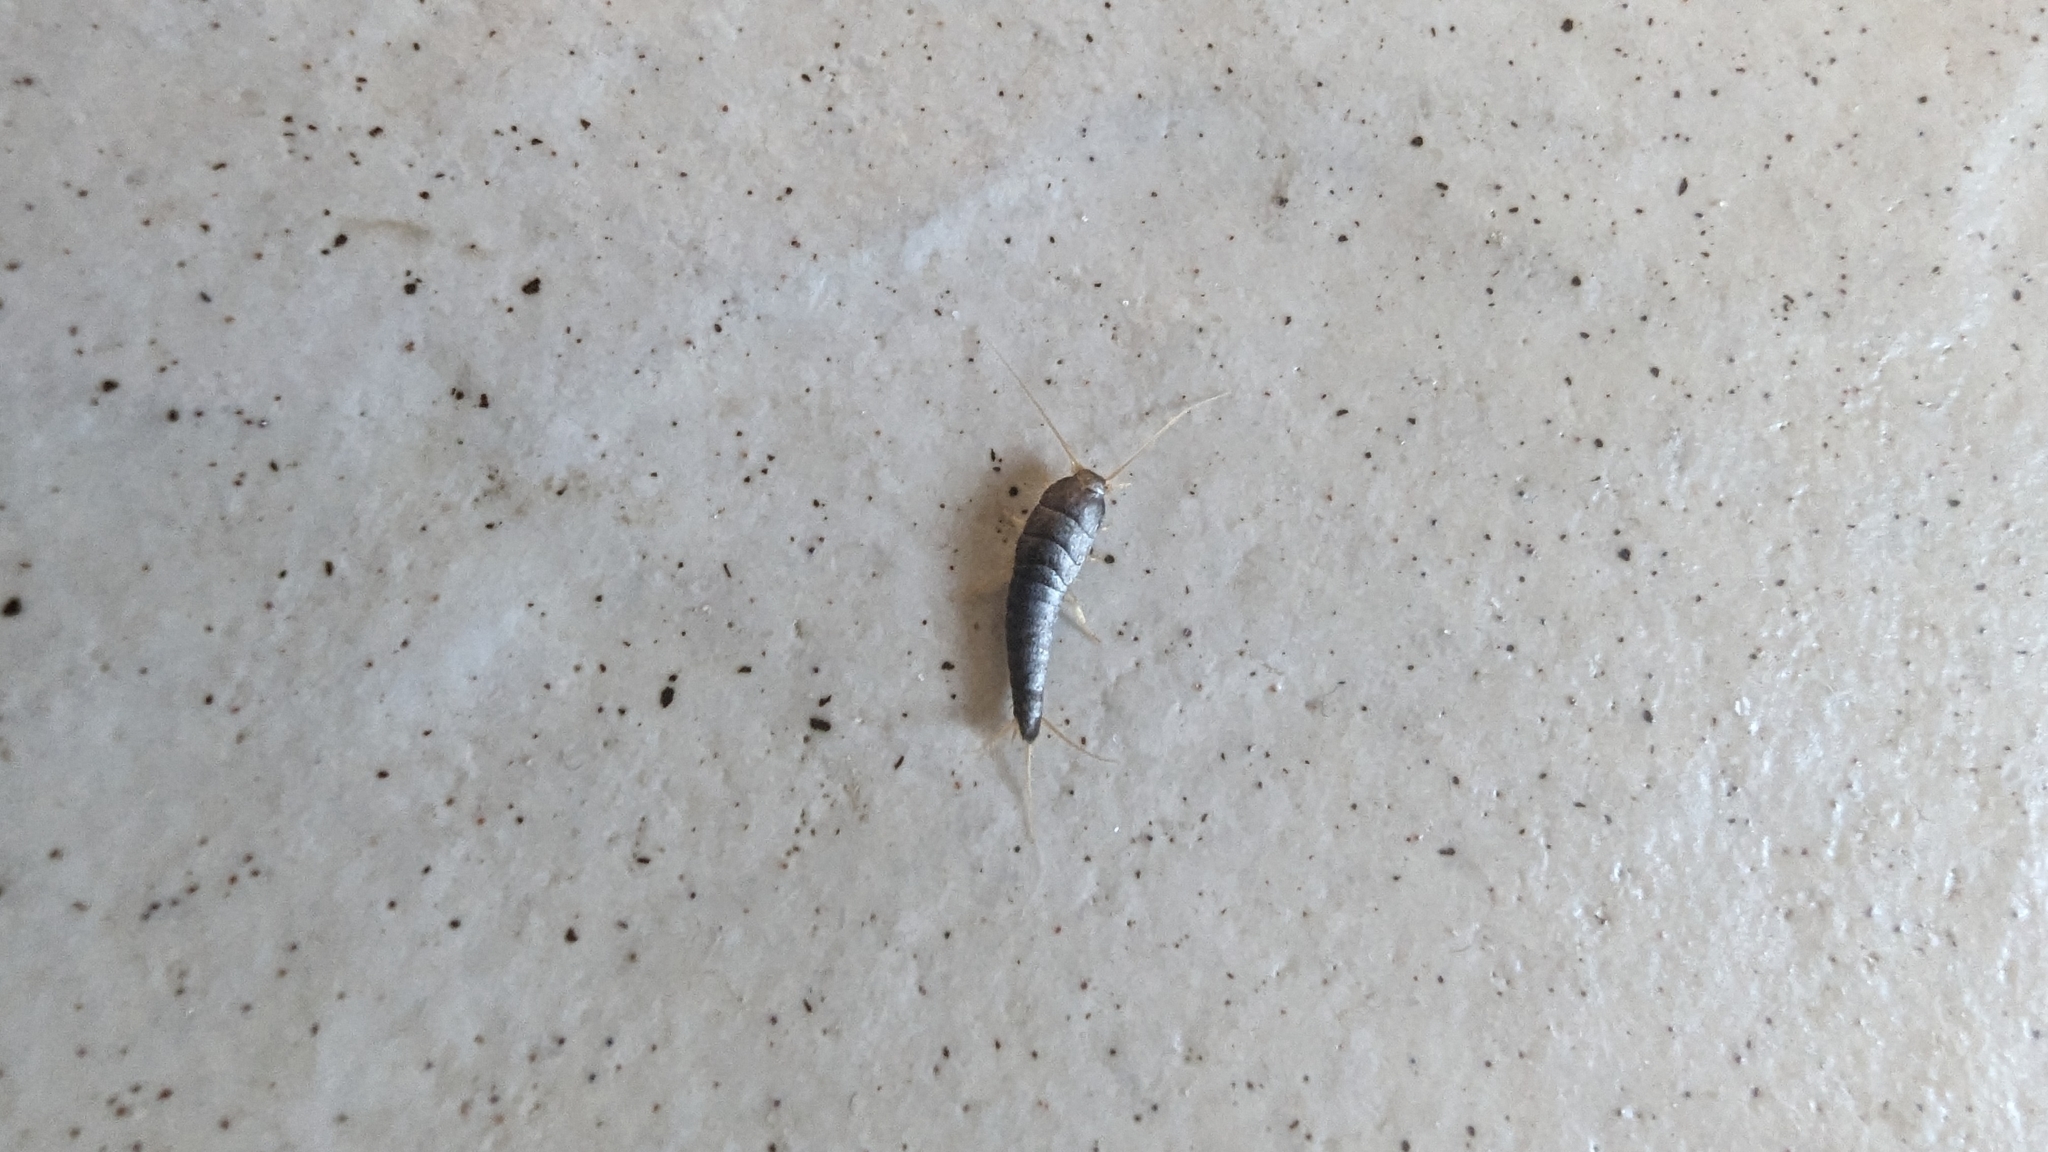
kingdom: Animalia
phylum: Arthropoda
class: Insecta
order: Zygentoma
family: Lepismatidae
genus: Lepisma
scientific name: Lepisma saccharinum
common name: Silverfish
